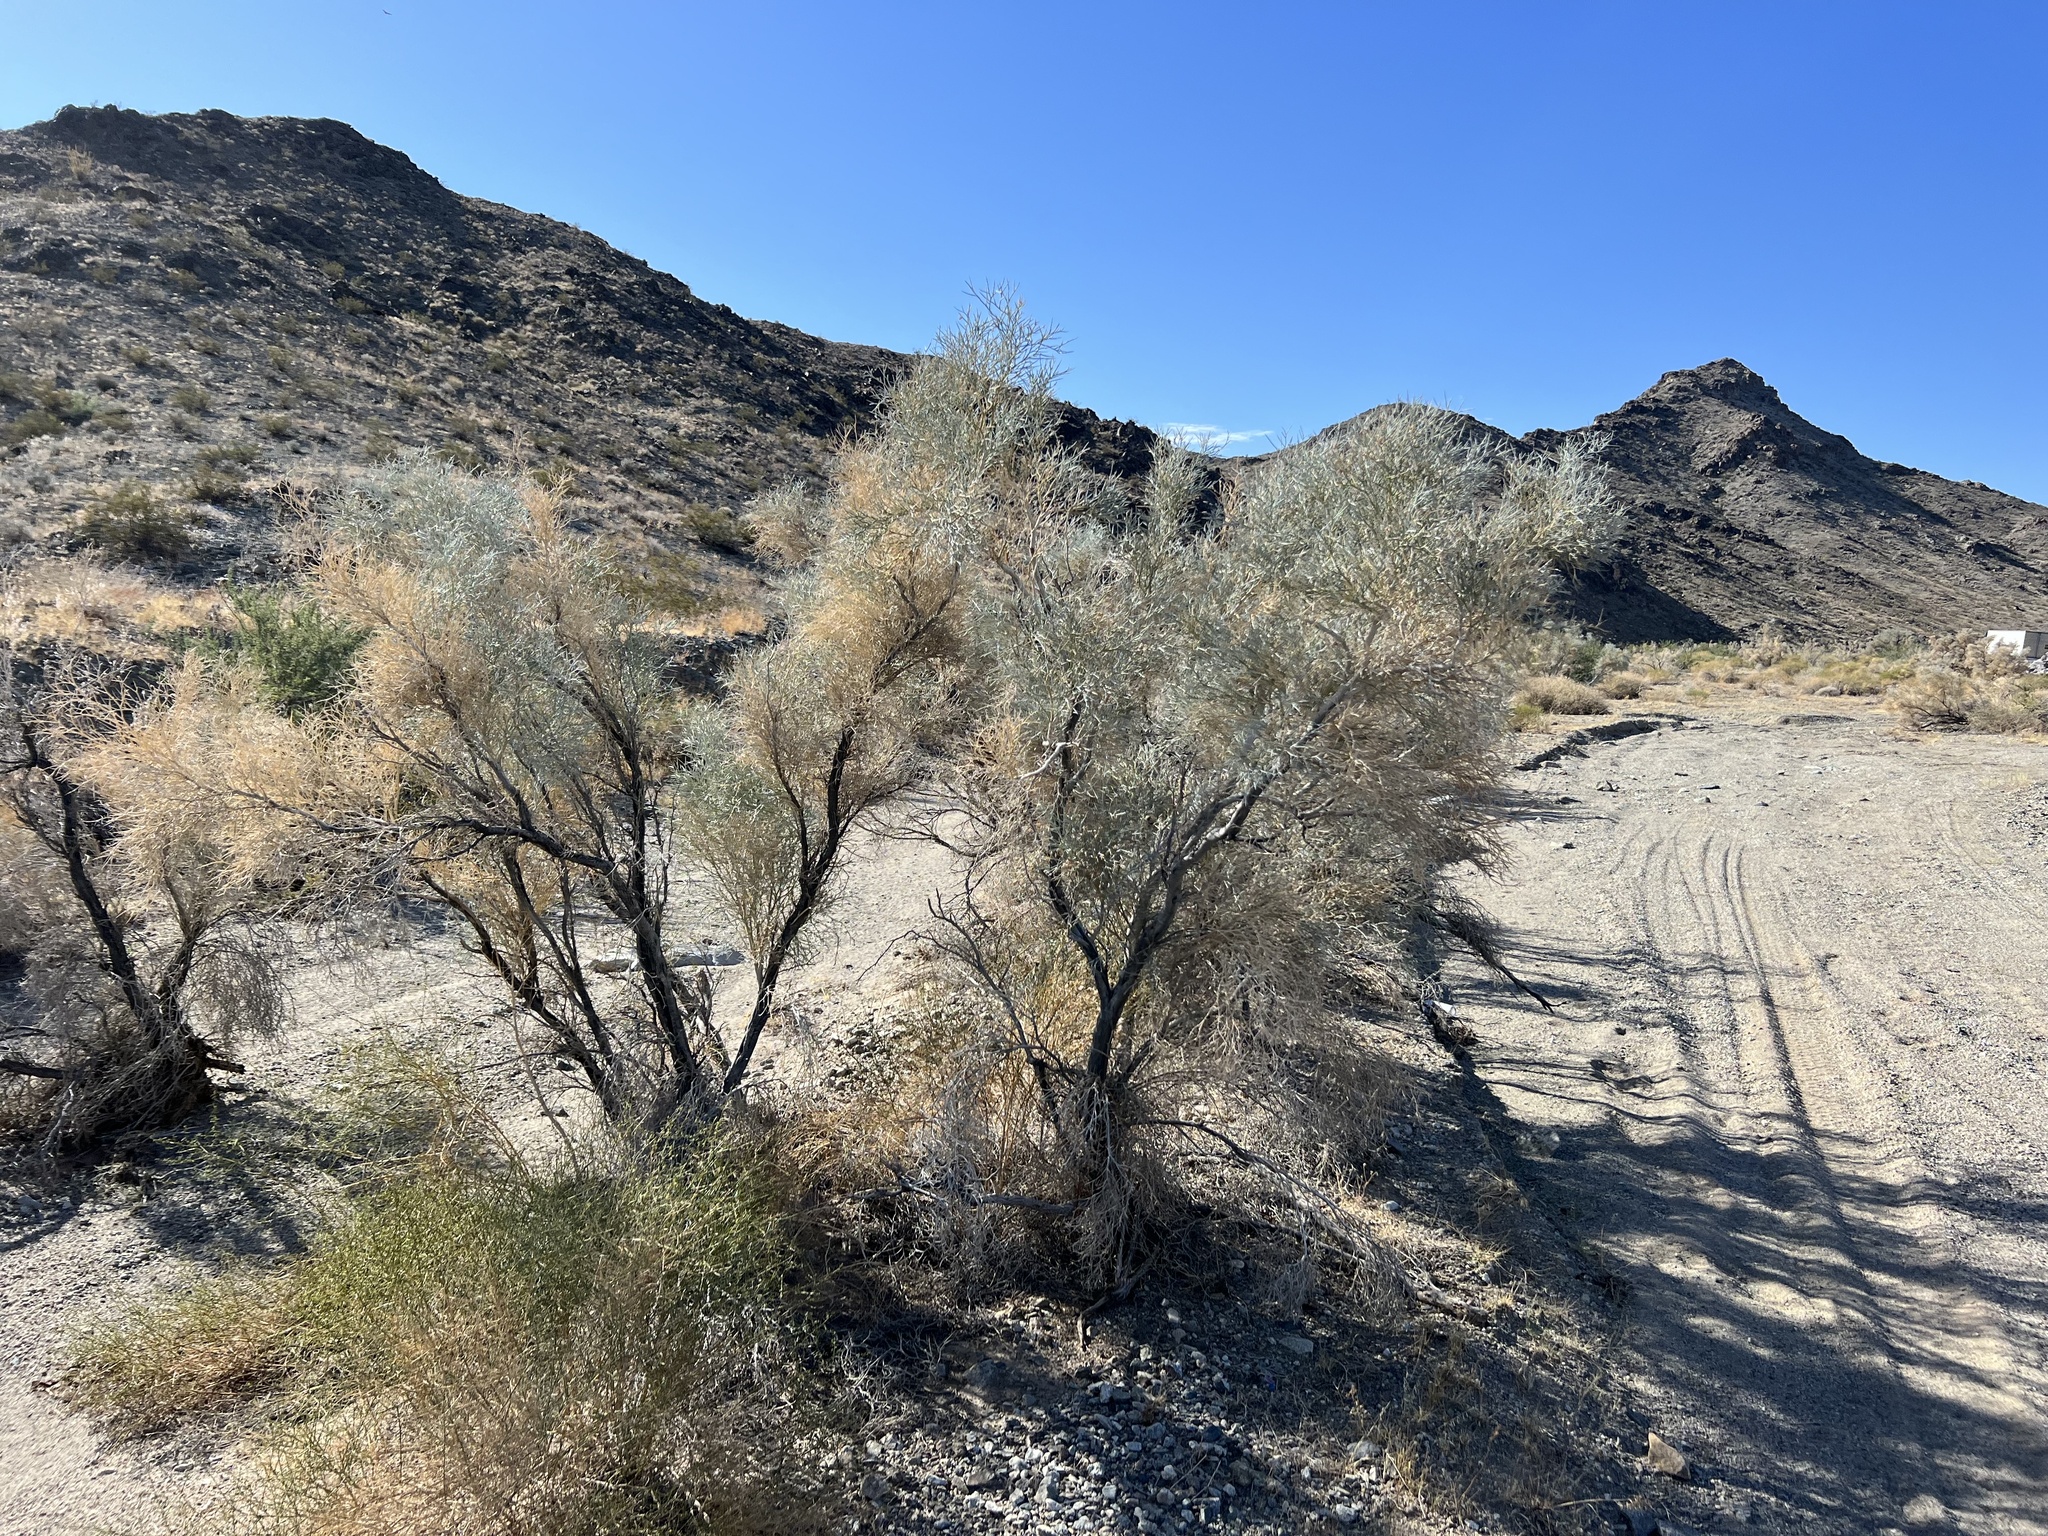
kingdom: Plantae
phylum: Tracheophyta
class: Magnoliopsida
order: Fabales
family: Fabaceae
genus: Psorothamnus
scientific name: Psorothamnus spinosus
